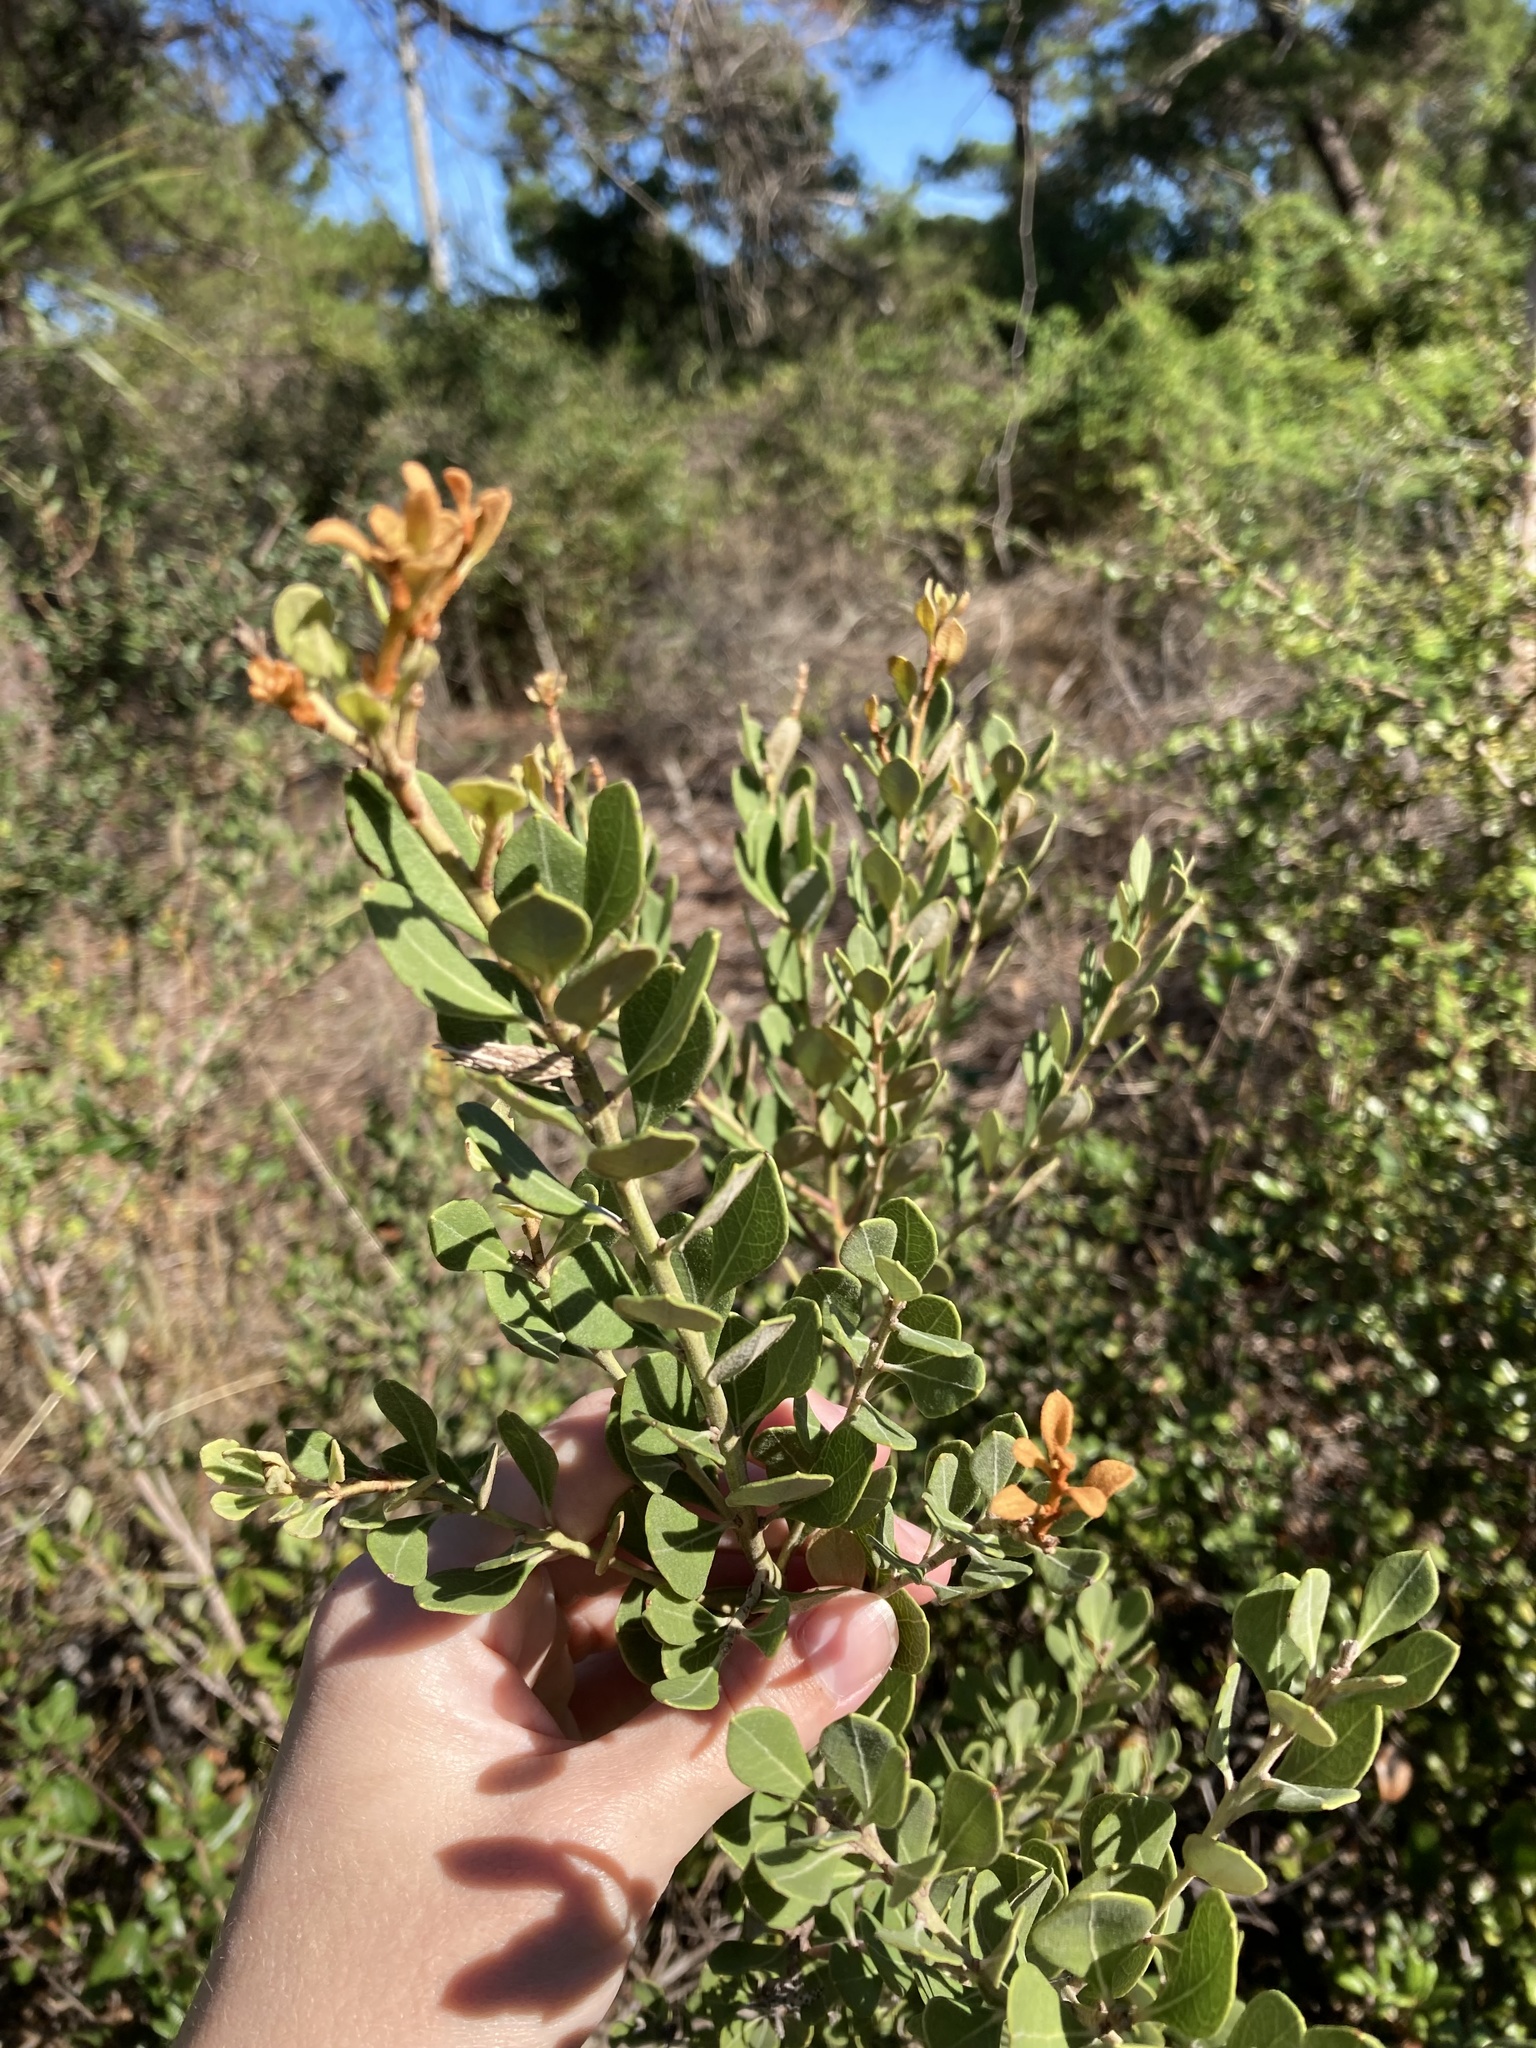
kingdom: Plantae
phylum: Tracheophyta
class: Magnoliopsida
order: Ericales
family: Ericaceae
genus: Lyonia
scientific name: Lyonia fruticosa
